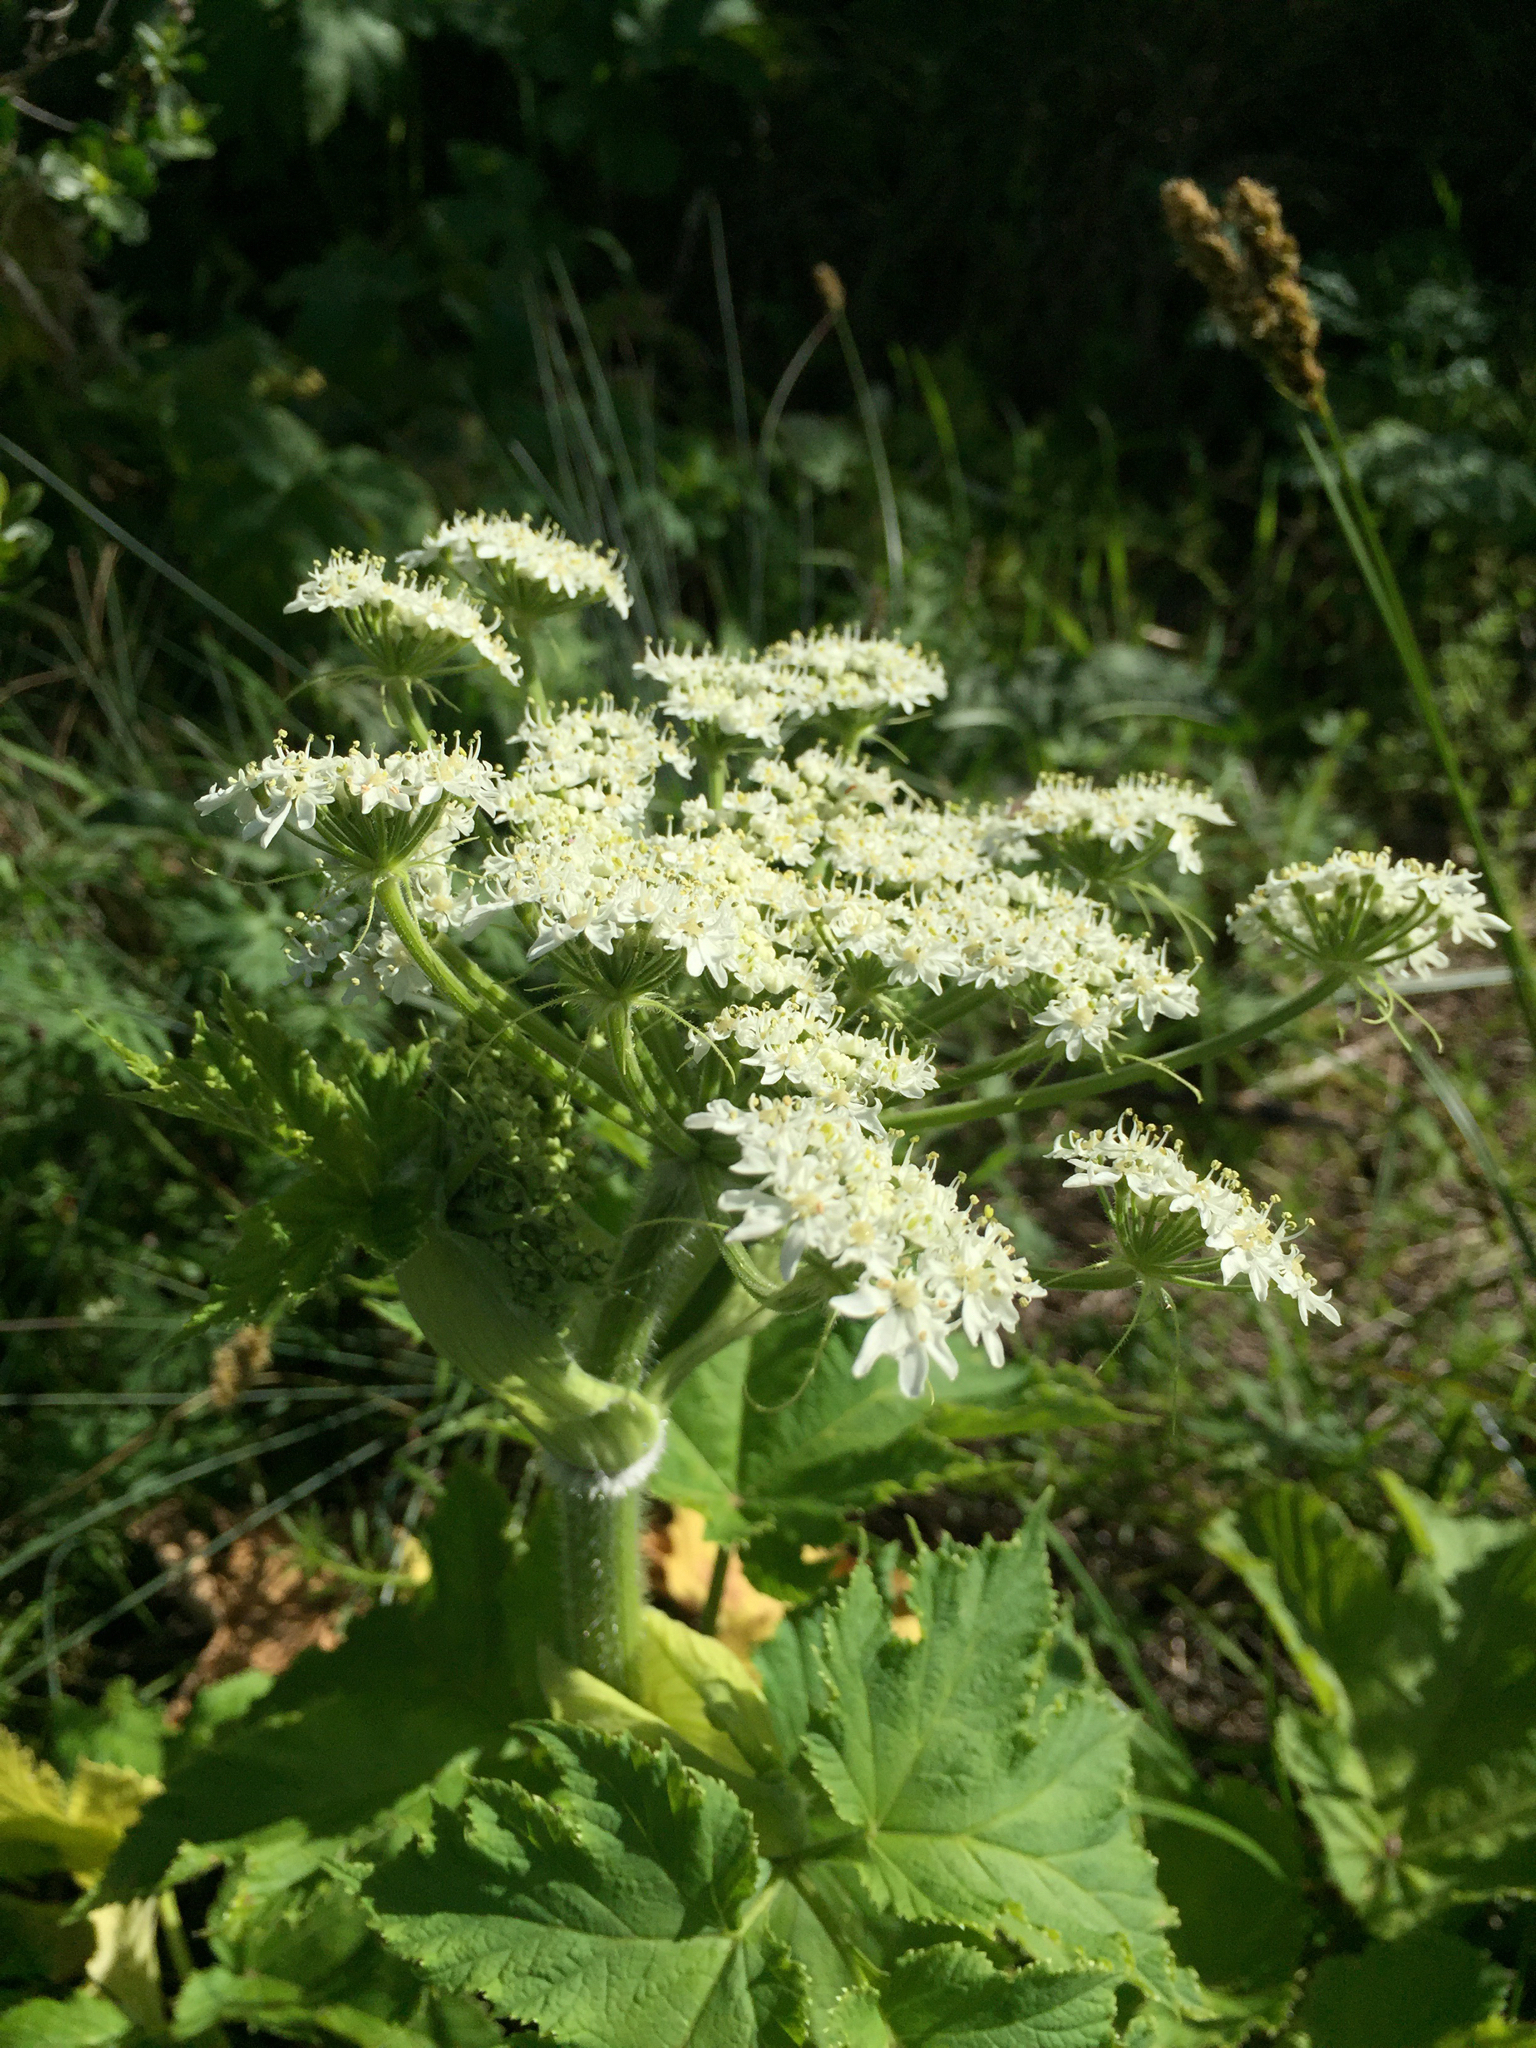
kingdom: Plantae
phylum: Tracheophyta
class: Magnoliopsida
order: Apiales
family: Apiaceae
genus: Heracleum
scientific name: Heracleum maximum
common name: American cow parsnip
